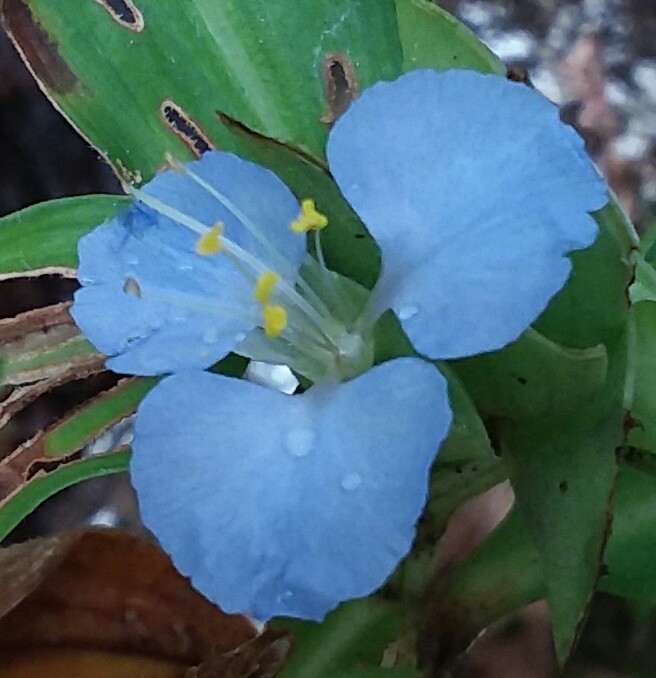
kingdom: Plantae
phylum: Tracheophyta
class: Liliopsida
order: Commelinales
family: Commelinaceae
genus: Commelina
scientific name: Commelina virginica
